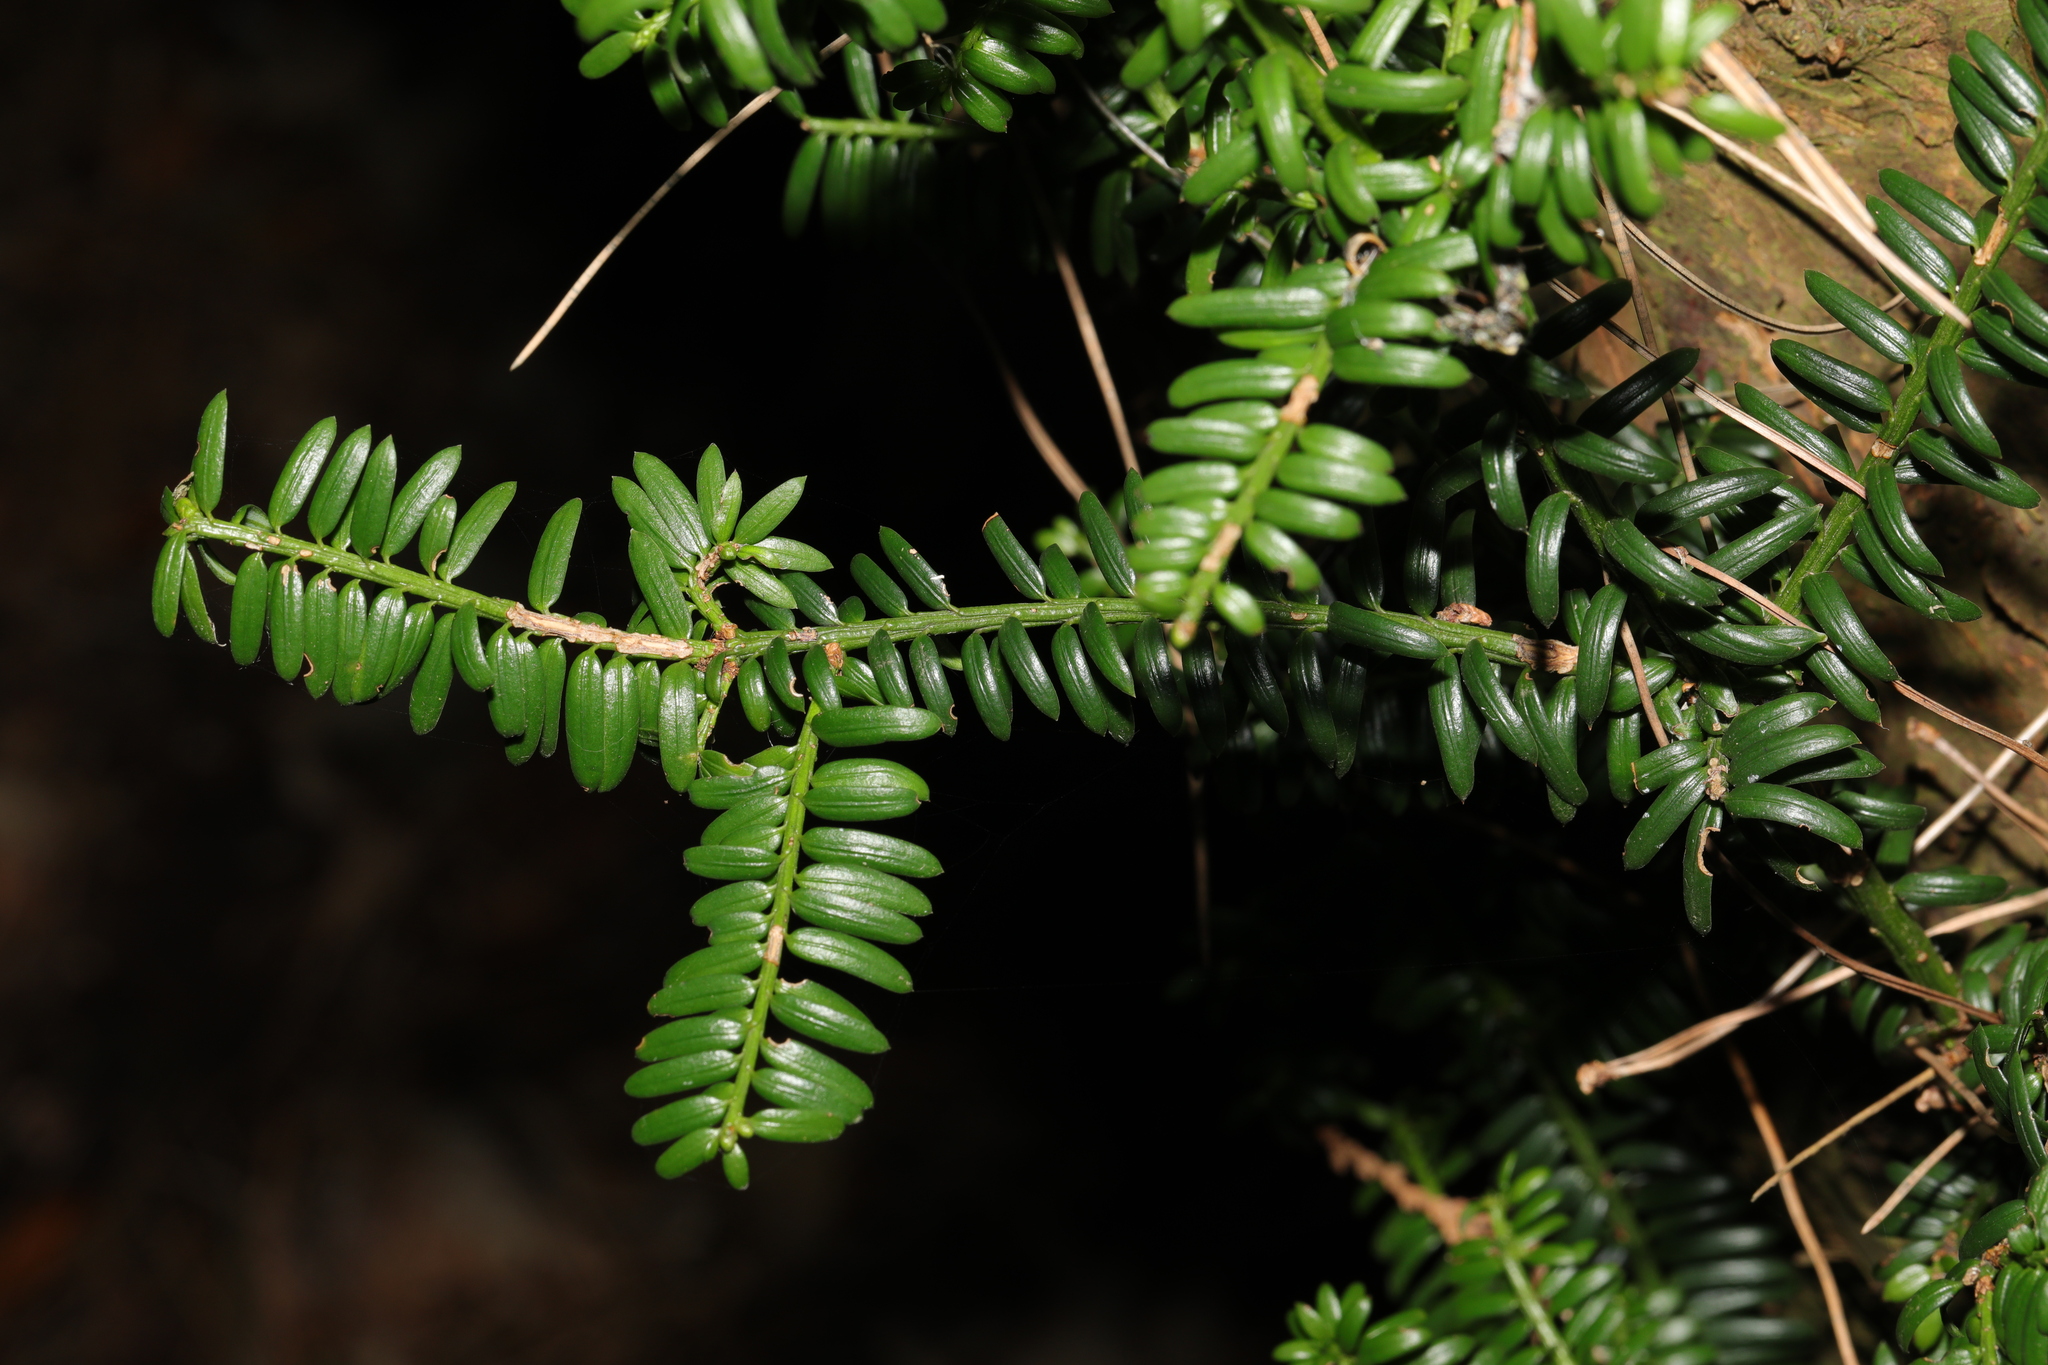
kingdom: Plantae
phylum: Tracheophyta
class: Pinopsida
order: Pinales
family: Taxaceae
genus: Taxus
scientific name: Taxus baccata
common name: Yew
